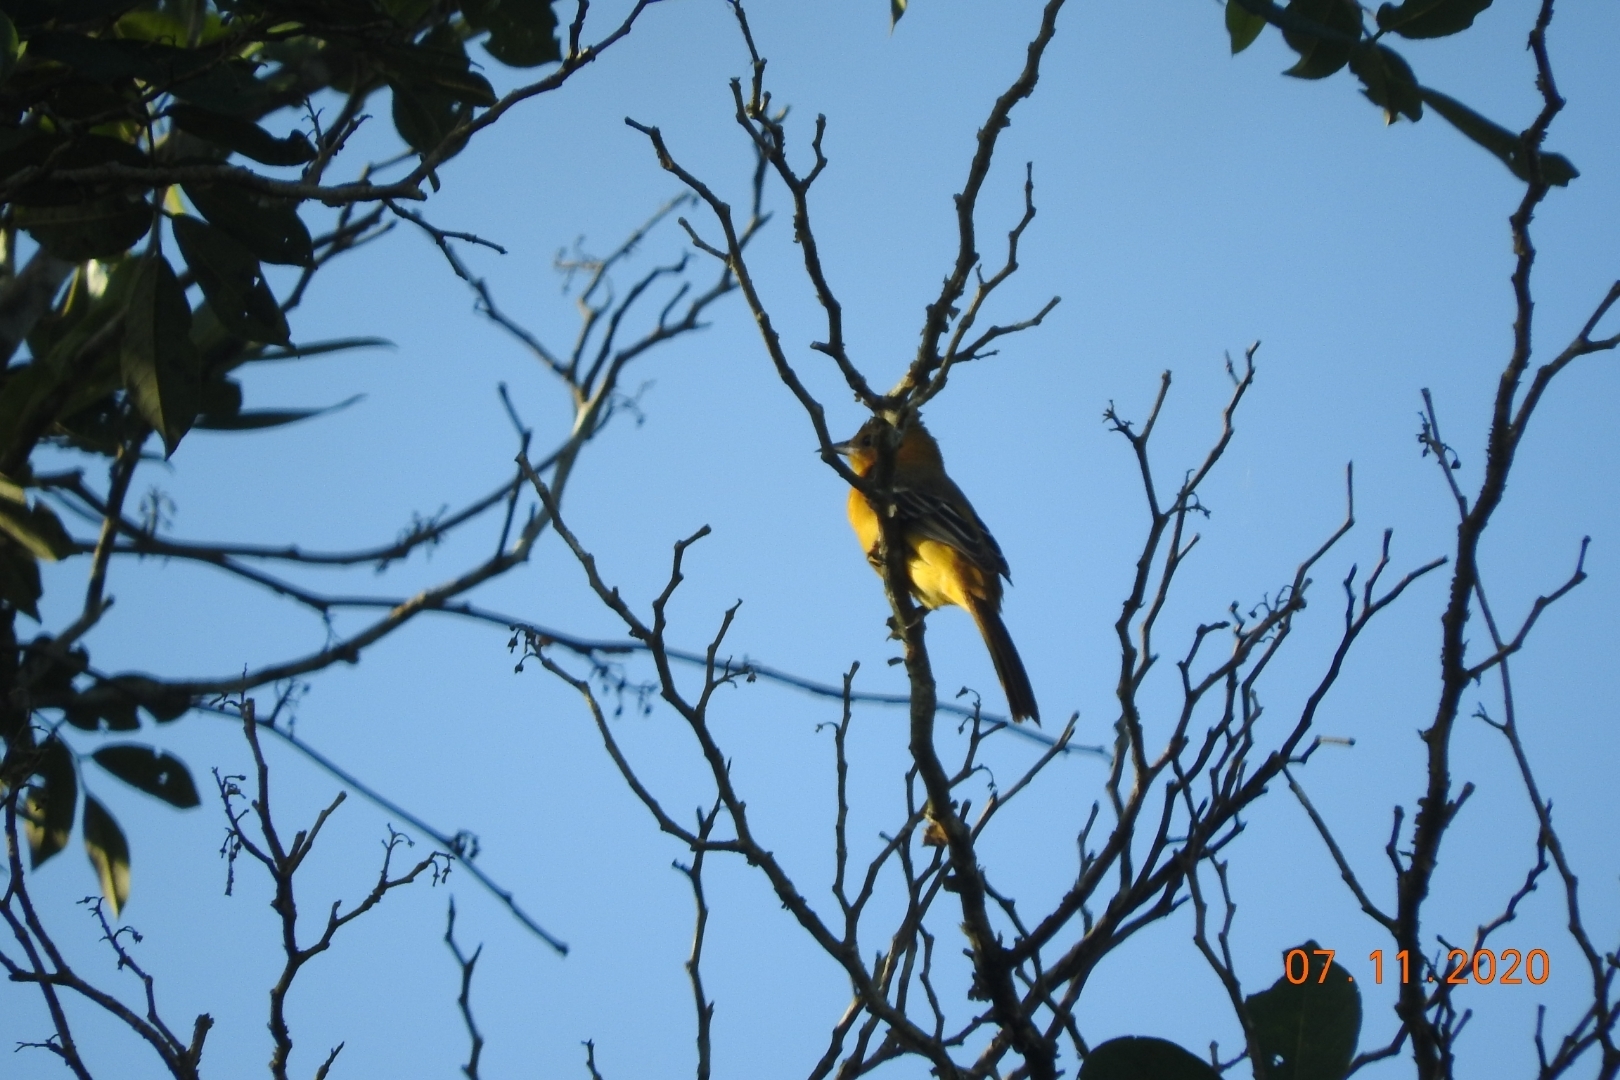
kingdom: Animalia
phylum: Chordata
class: Aves
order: Passeriformes
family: Icteridae
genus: Icterus
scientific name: Icterus cucullatus
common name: Hooded oriole
